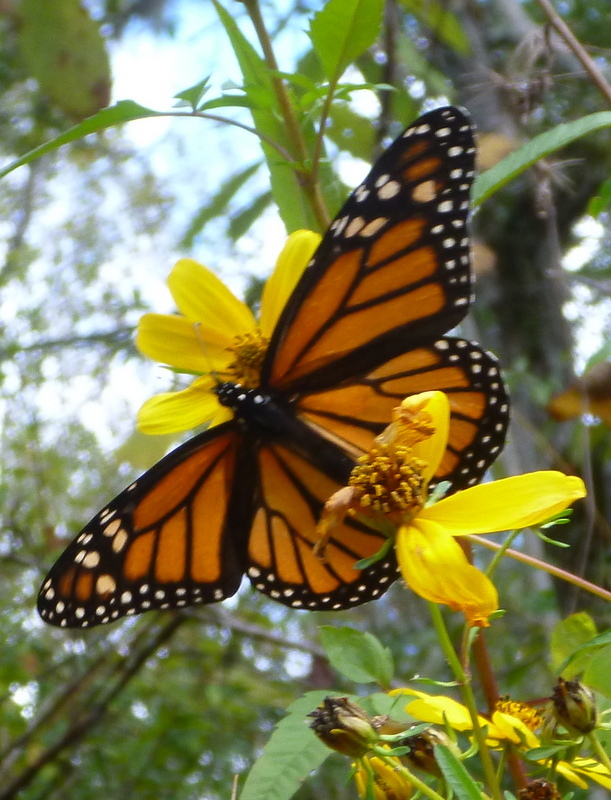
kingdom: Animalia
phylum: Arthropoda
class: Insecta
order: Lepidoptera
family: Nymphalidae
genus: Danaus
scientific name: Danaus plexippus
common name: Monarch
